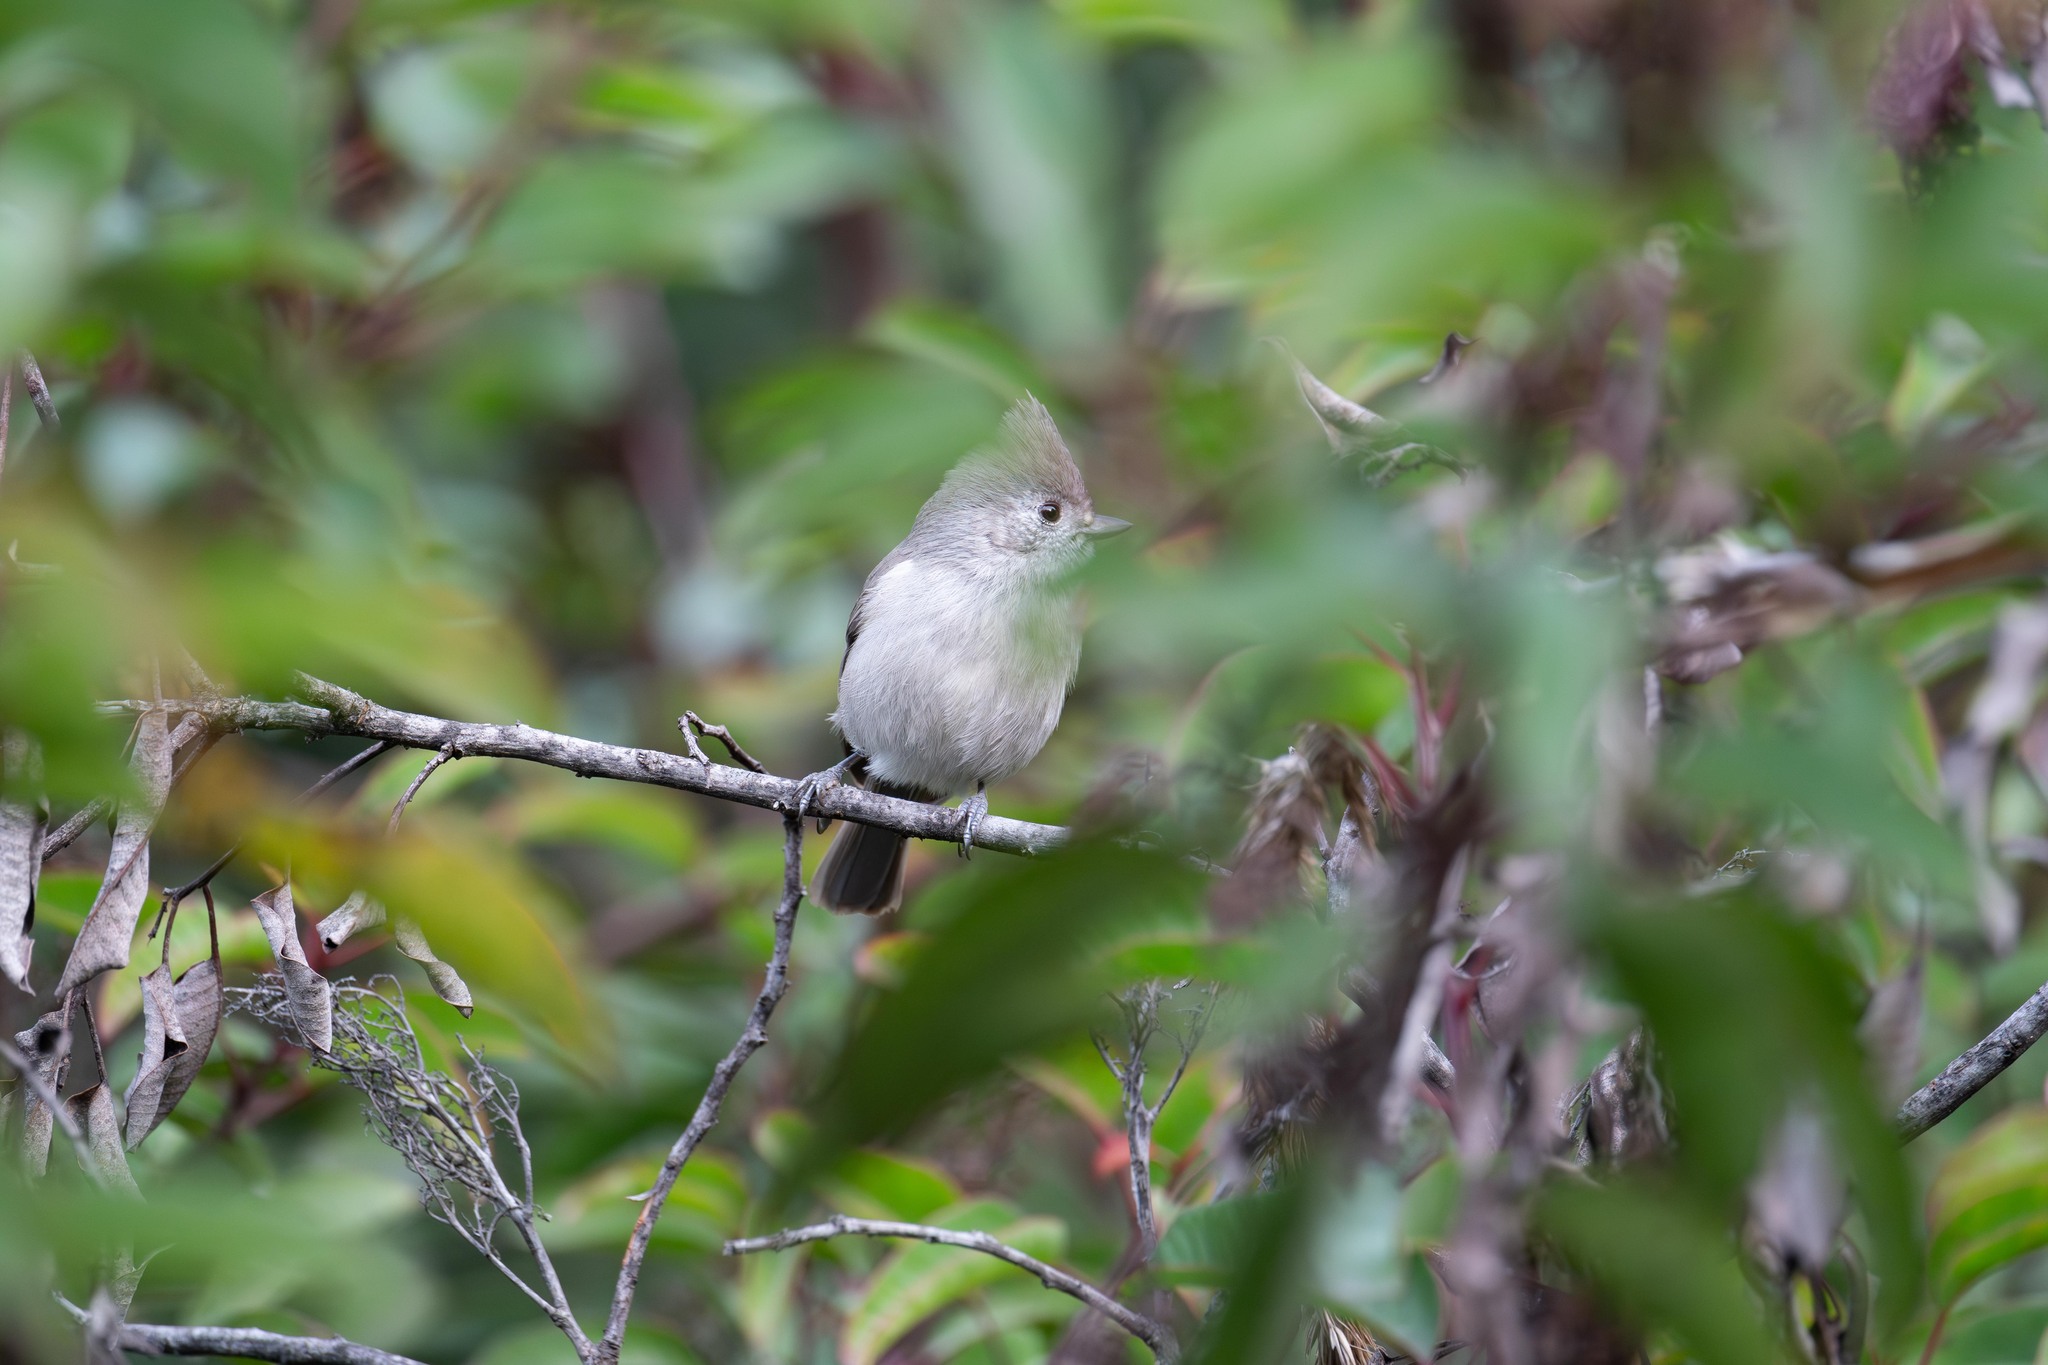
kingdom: Animalia
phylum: Chordata
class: Aves
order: Passeriformes
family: Paridae
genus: Baeolophus
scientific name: Baeolophus inornatus
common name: Oak titmouse
